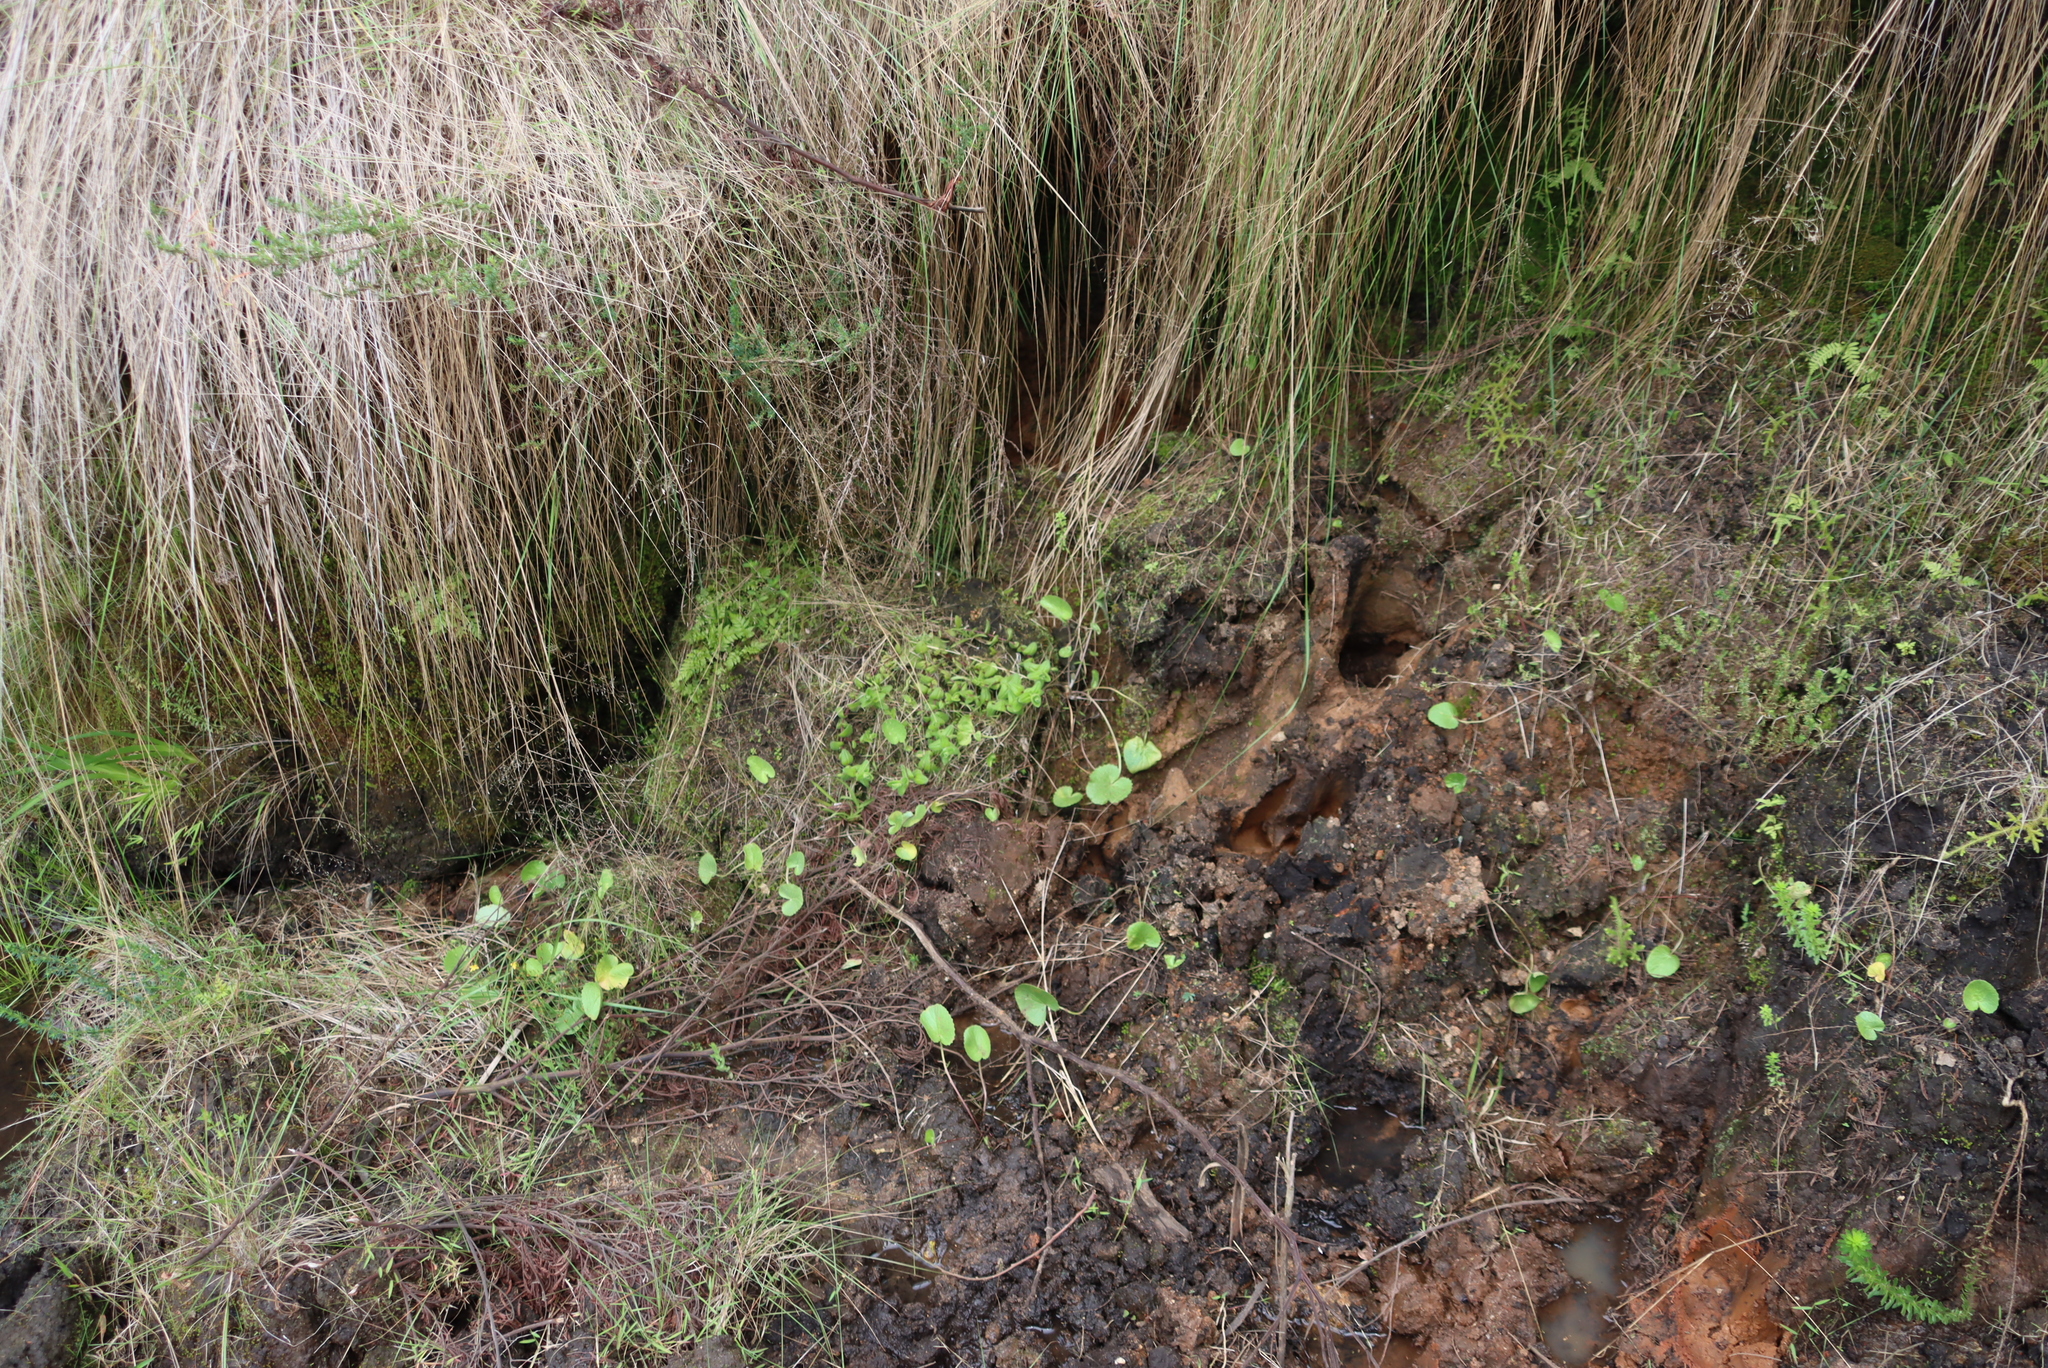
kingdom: Plantae
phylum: Tracheophyta
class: Magnoliopsida
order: Apiales
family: Apiaceae
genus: Centella
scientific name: Centella asiatica
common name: Spadeleaf
